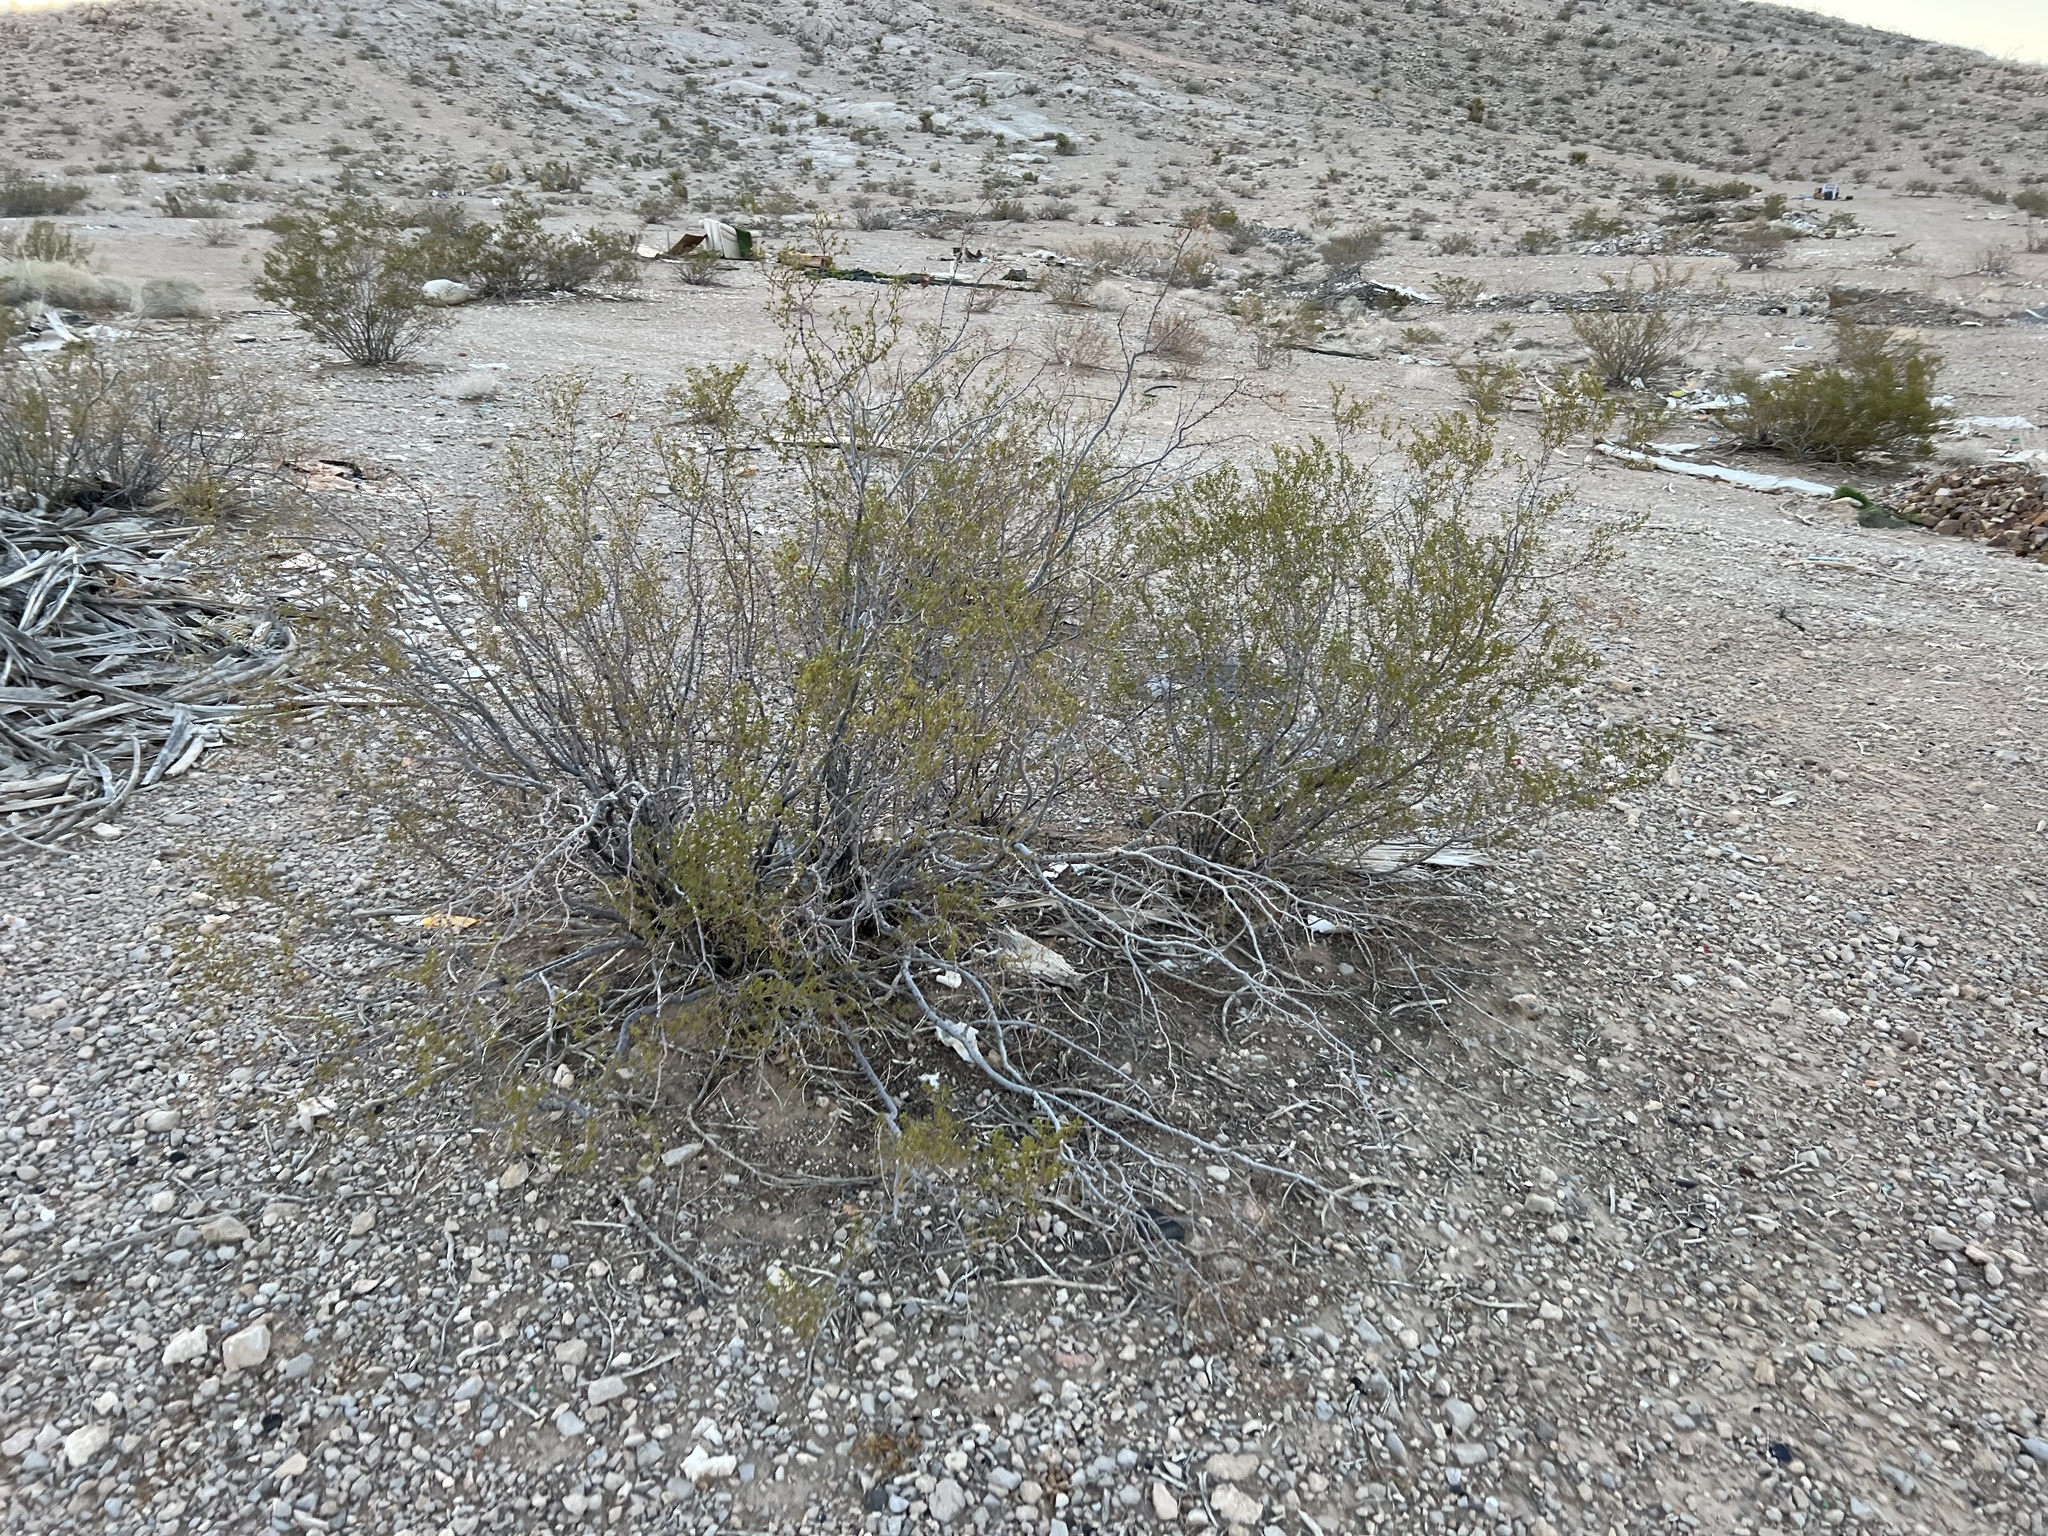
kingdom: Plantae
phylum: Tracheophyta
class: Magnoliopsida
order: Zygophyllales
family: Zygophyllaceae
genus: Larrea
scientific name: Larrea tridentata
